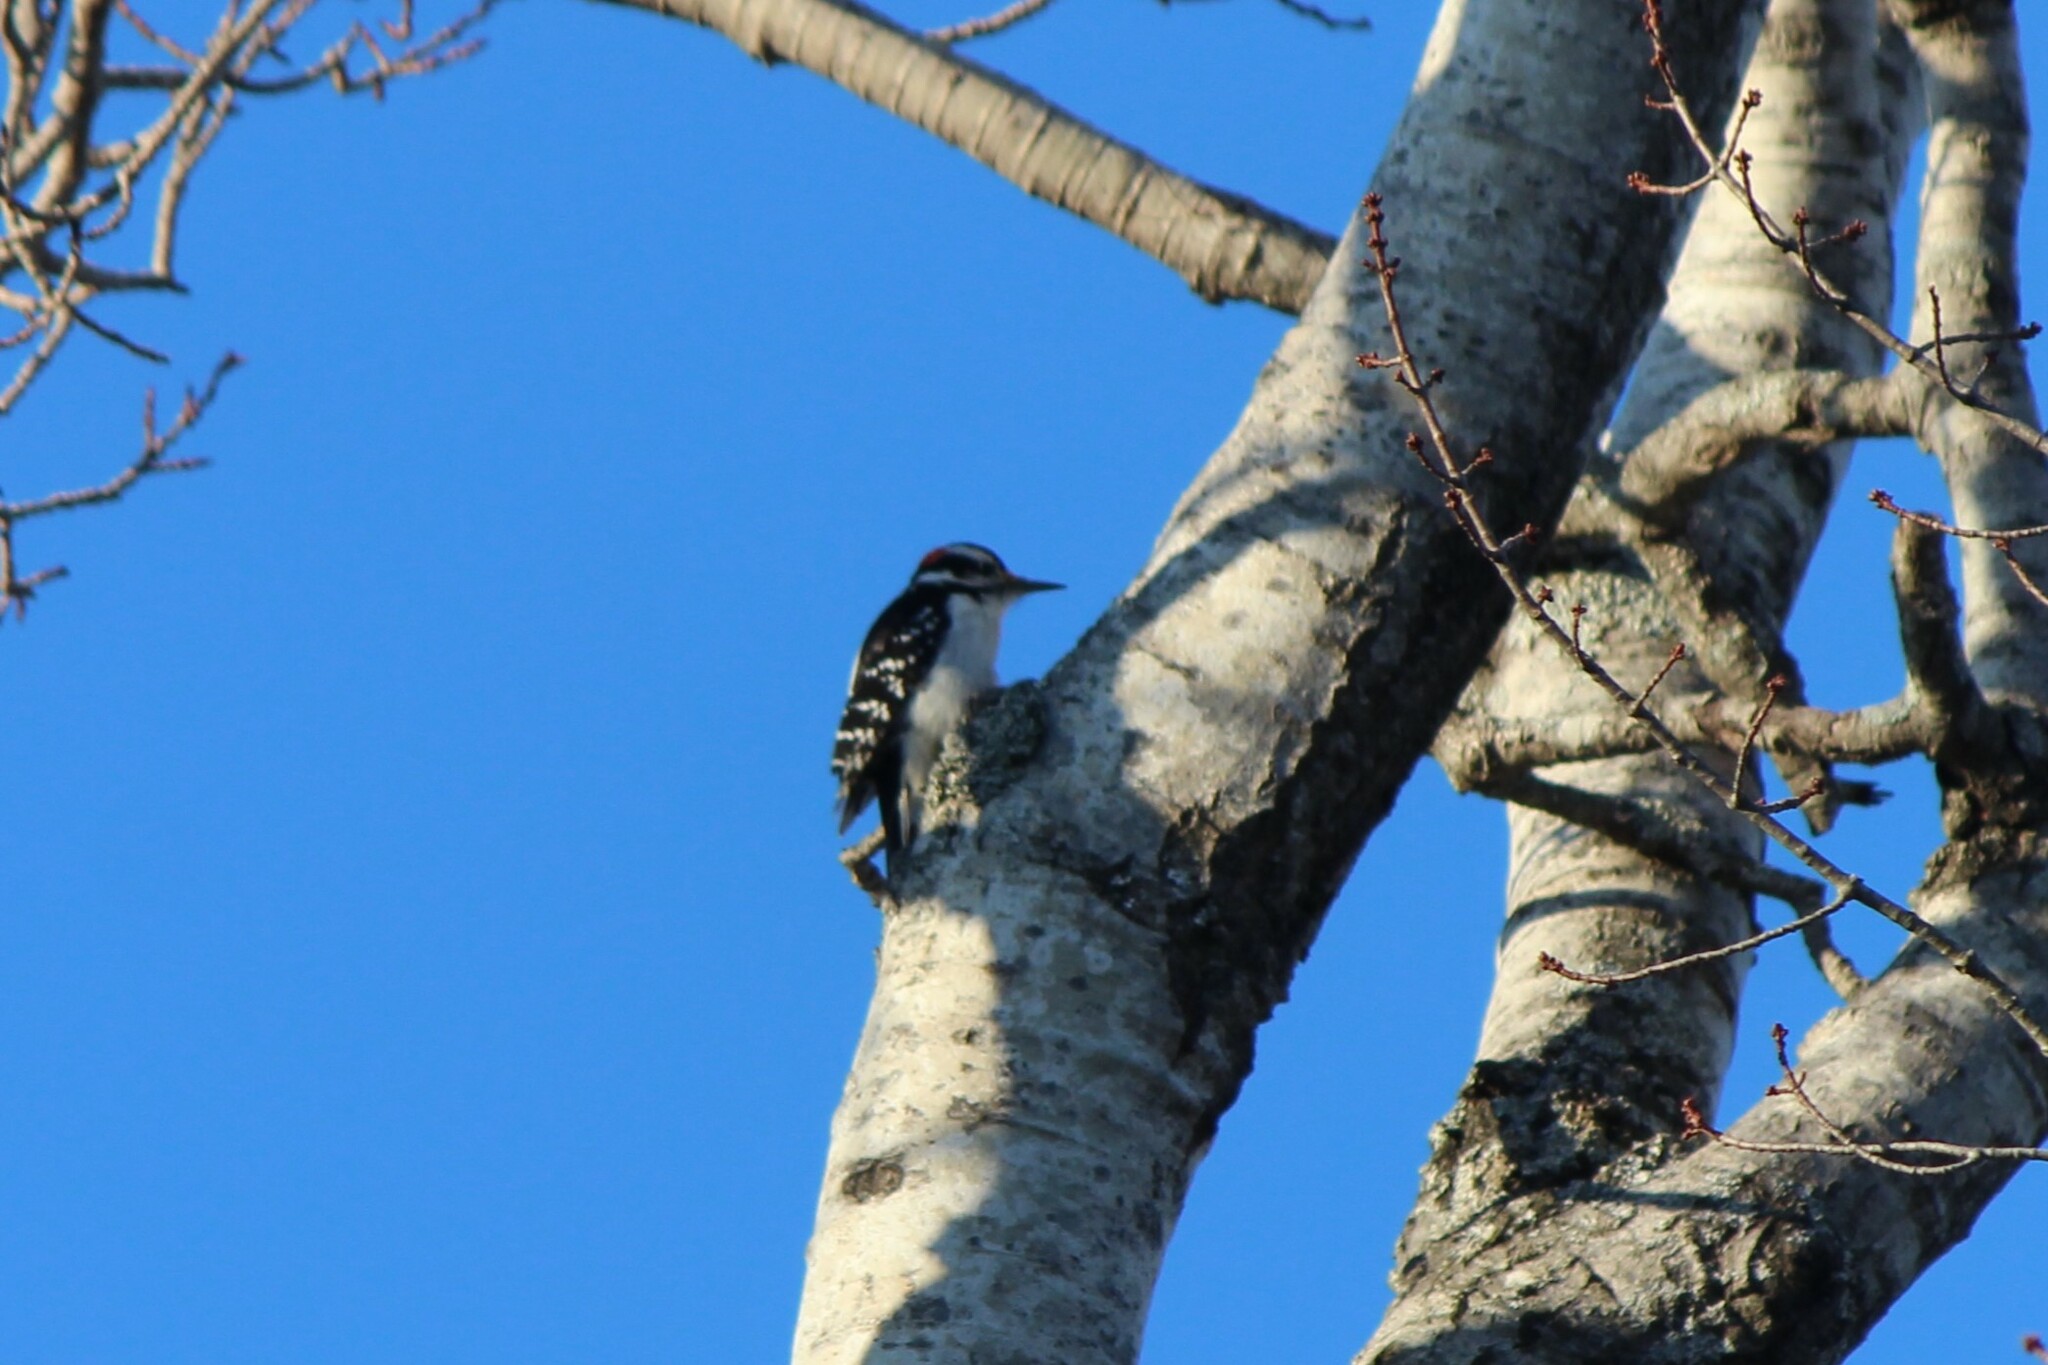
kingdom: Animalia
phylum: Chordata
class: Aves
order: Piciformes
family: Picidae
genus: Leuconotopicus
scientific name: Leuconotopicus villosus
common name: Hairy woodpecker
